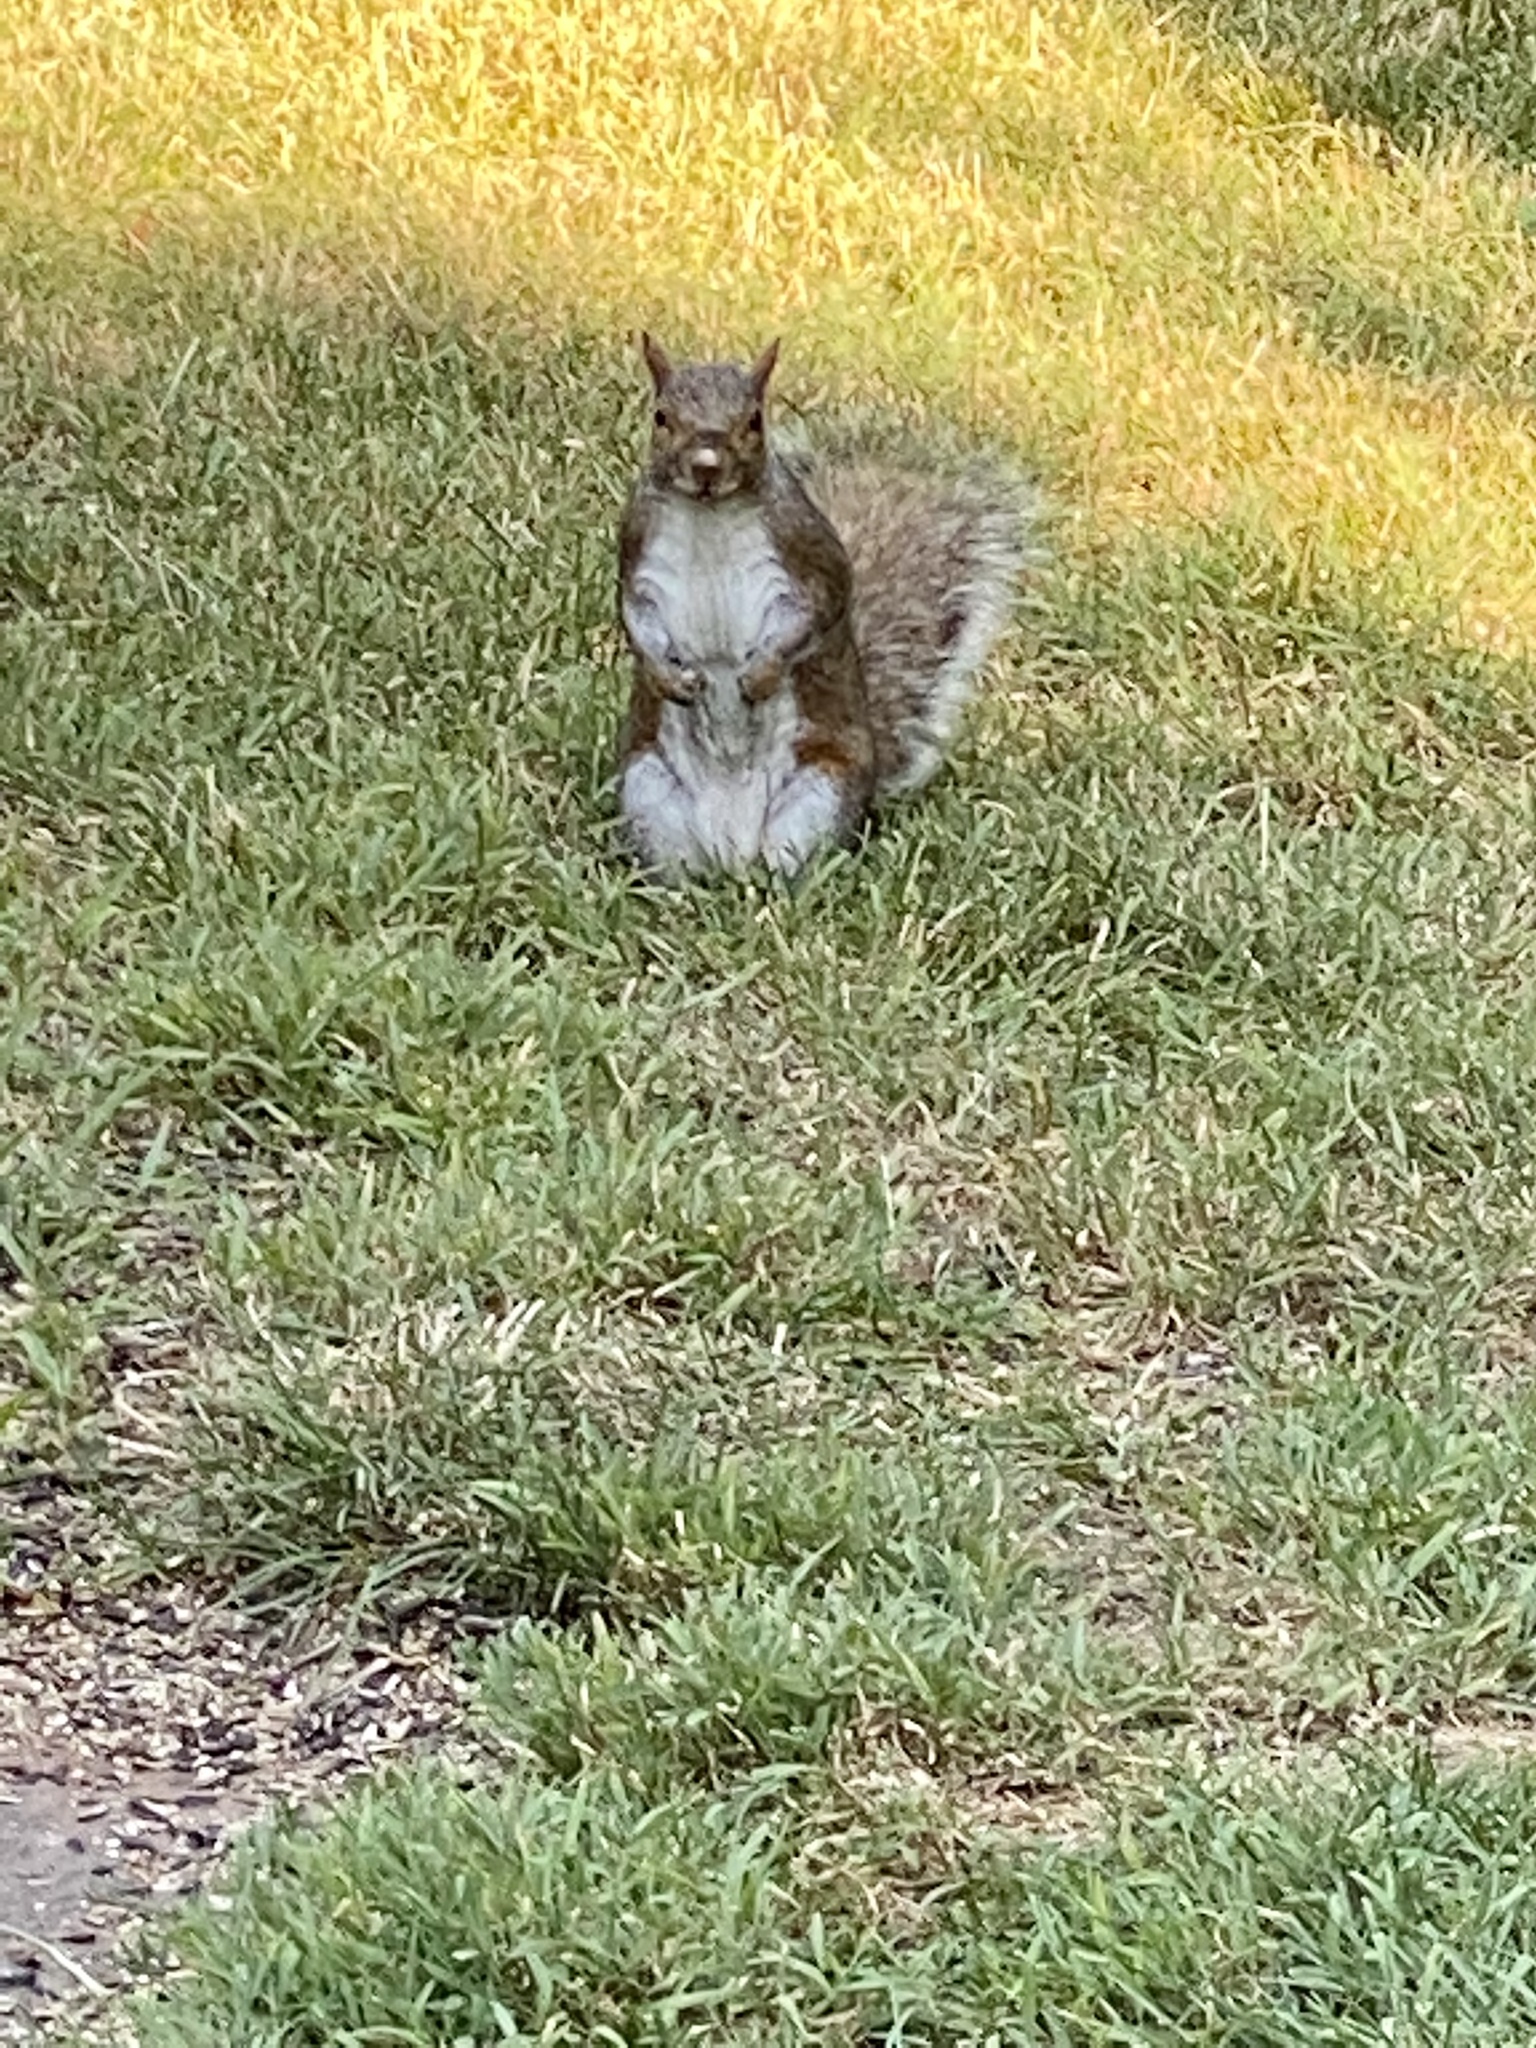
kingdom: Animalia
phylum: Chordata
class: Mammalia
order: Rodentia
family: Sciuridae
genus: Sciurus
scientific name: Sciurus carolinensis
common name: Eastern gray squirrel
